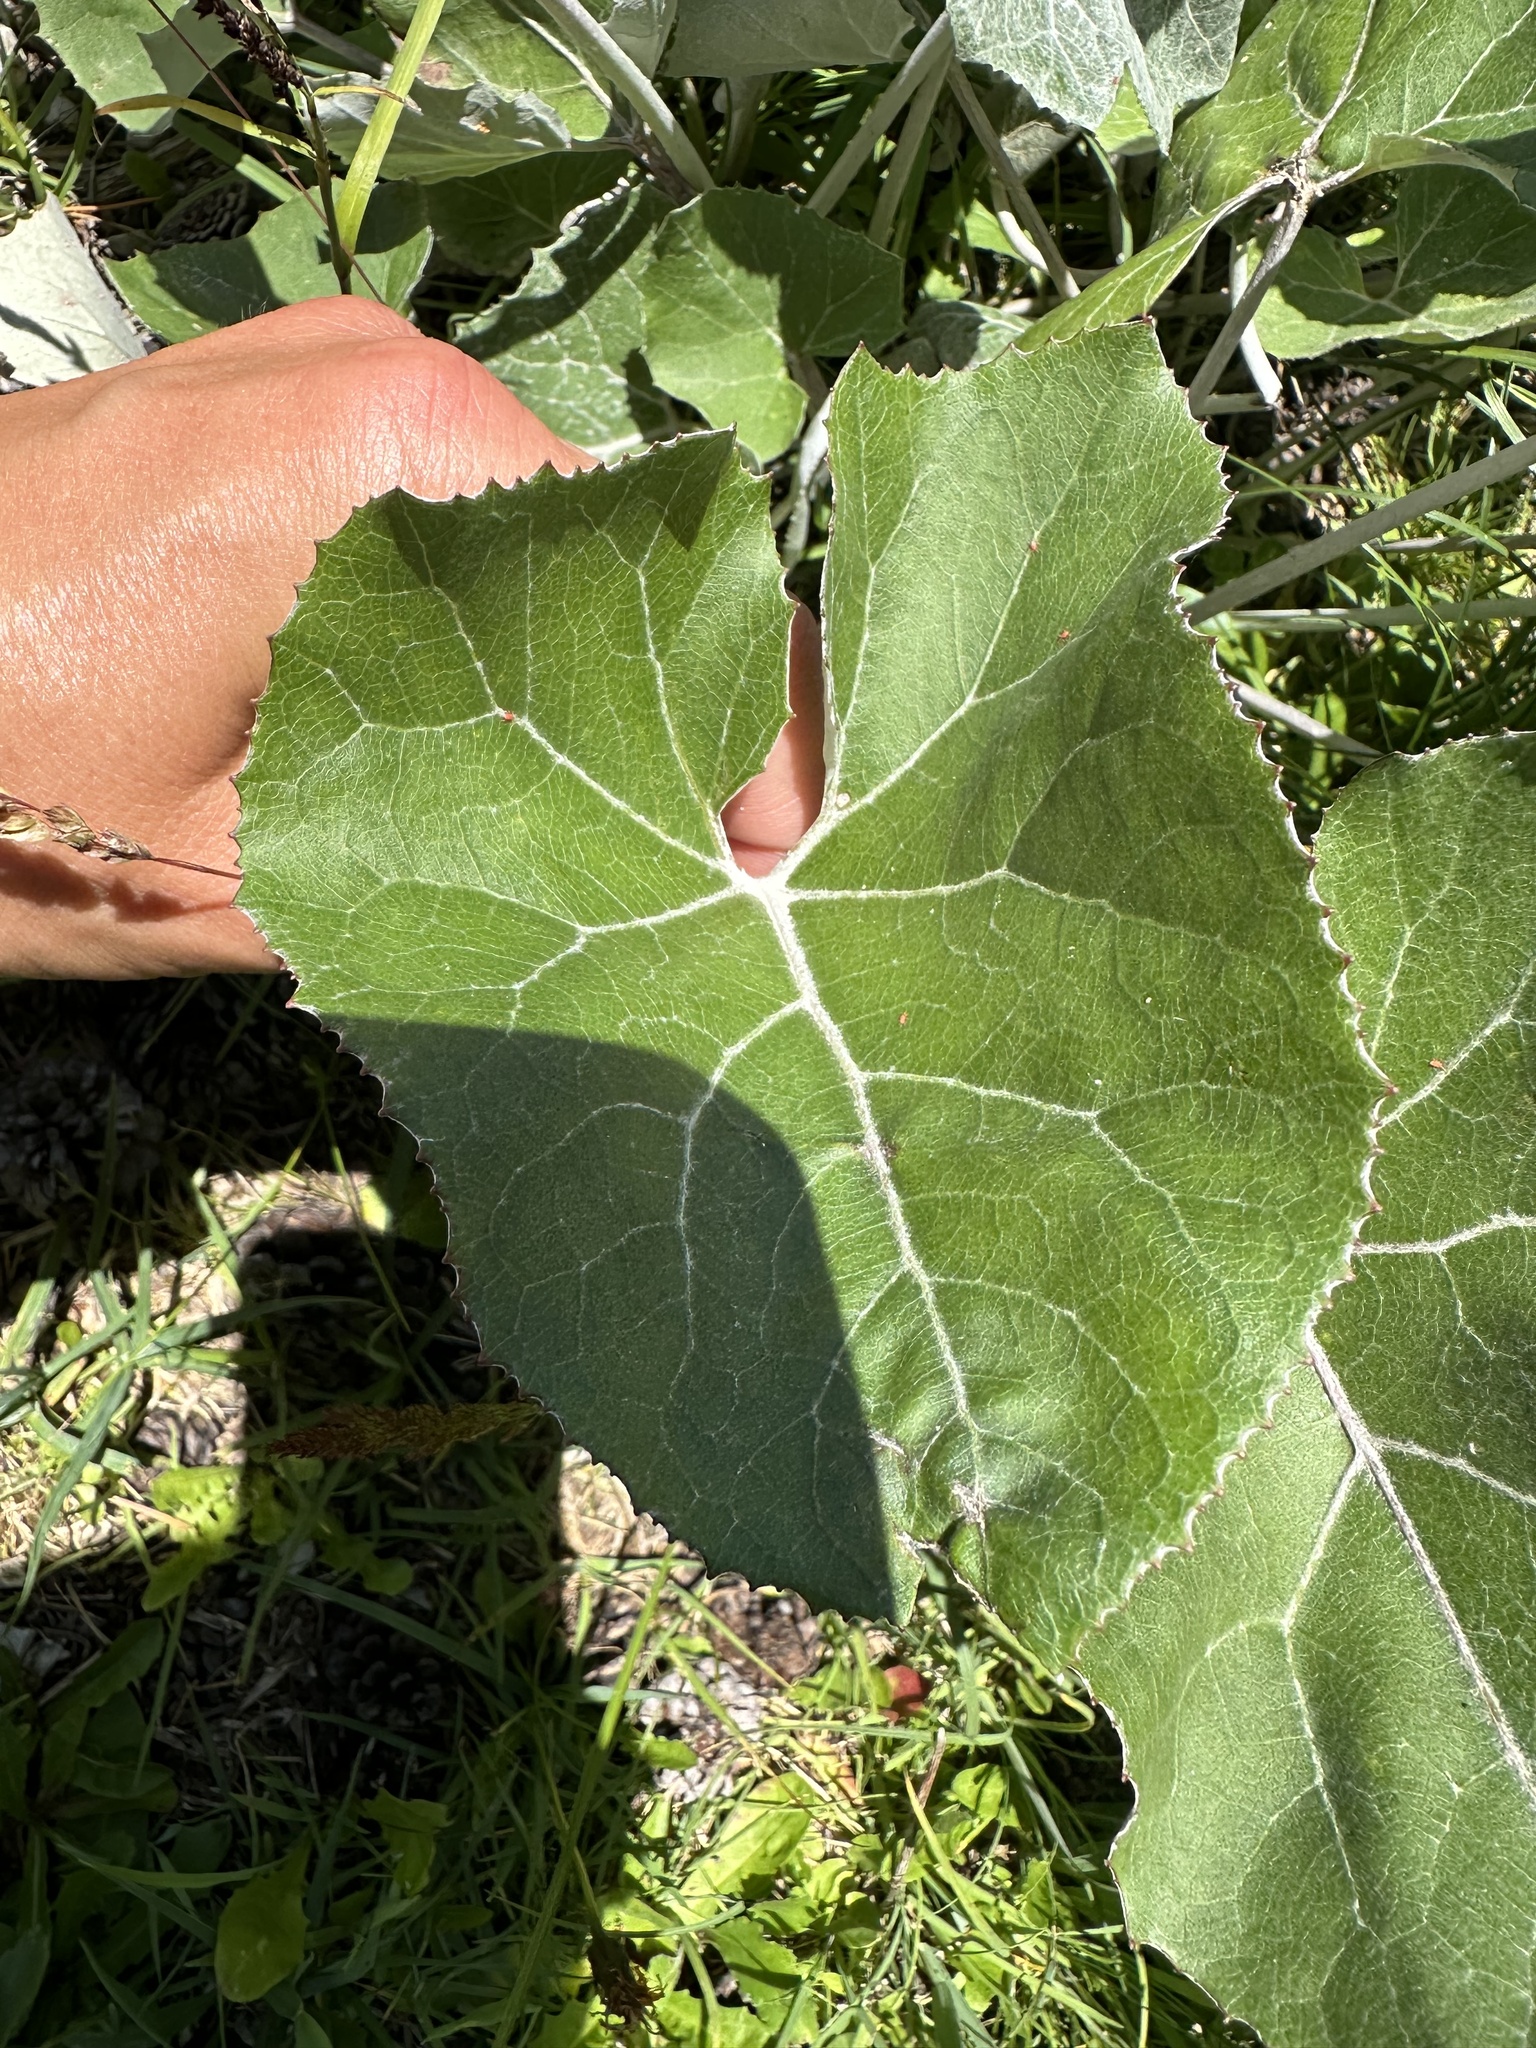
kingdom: Plantae
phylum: Tracheophyta
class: Magnoliopsida
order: Asterales
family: Asteraceae
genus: Petasites
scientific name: Petasites paradoxus
